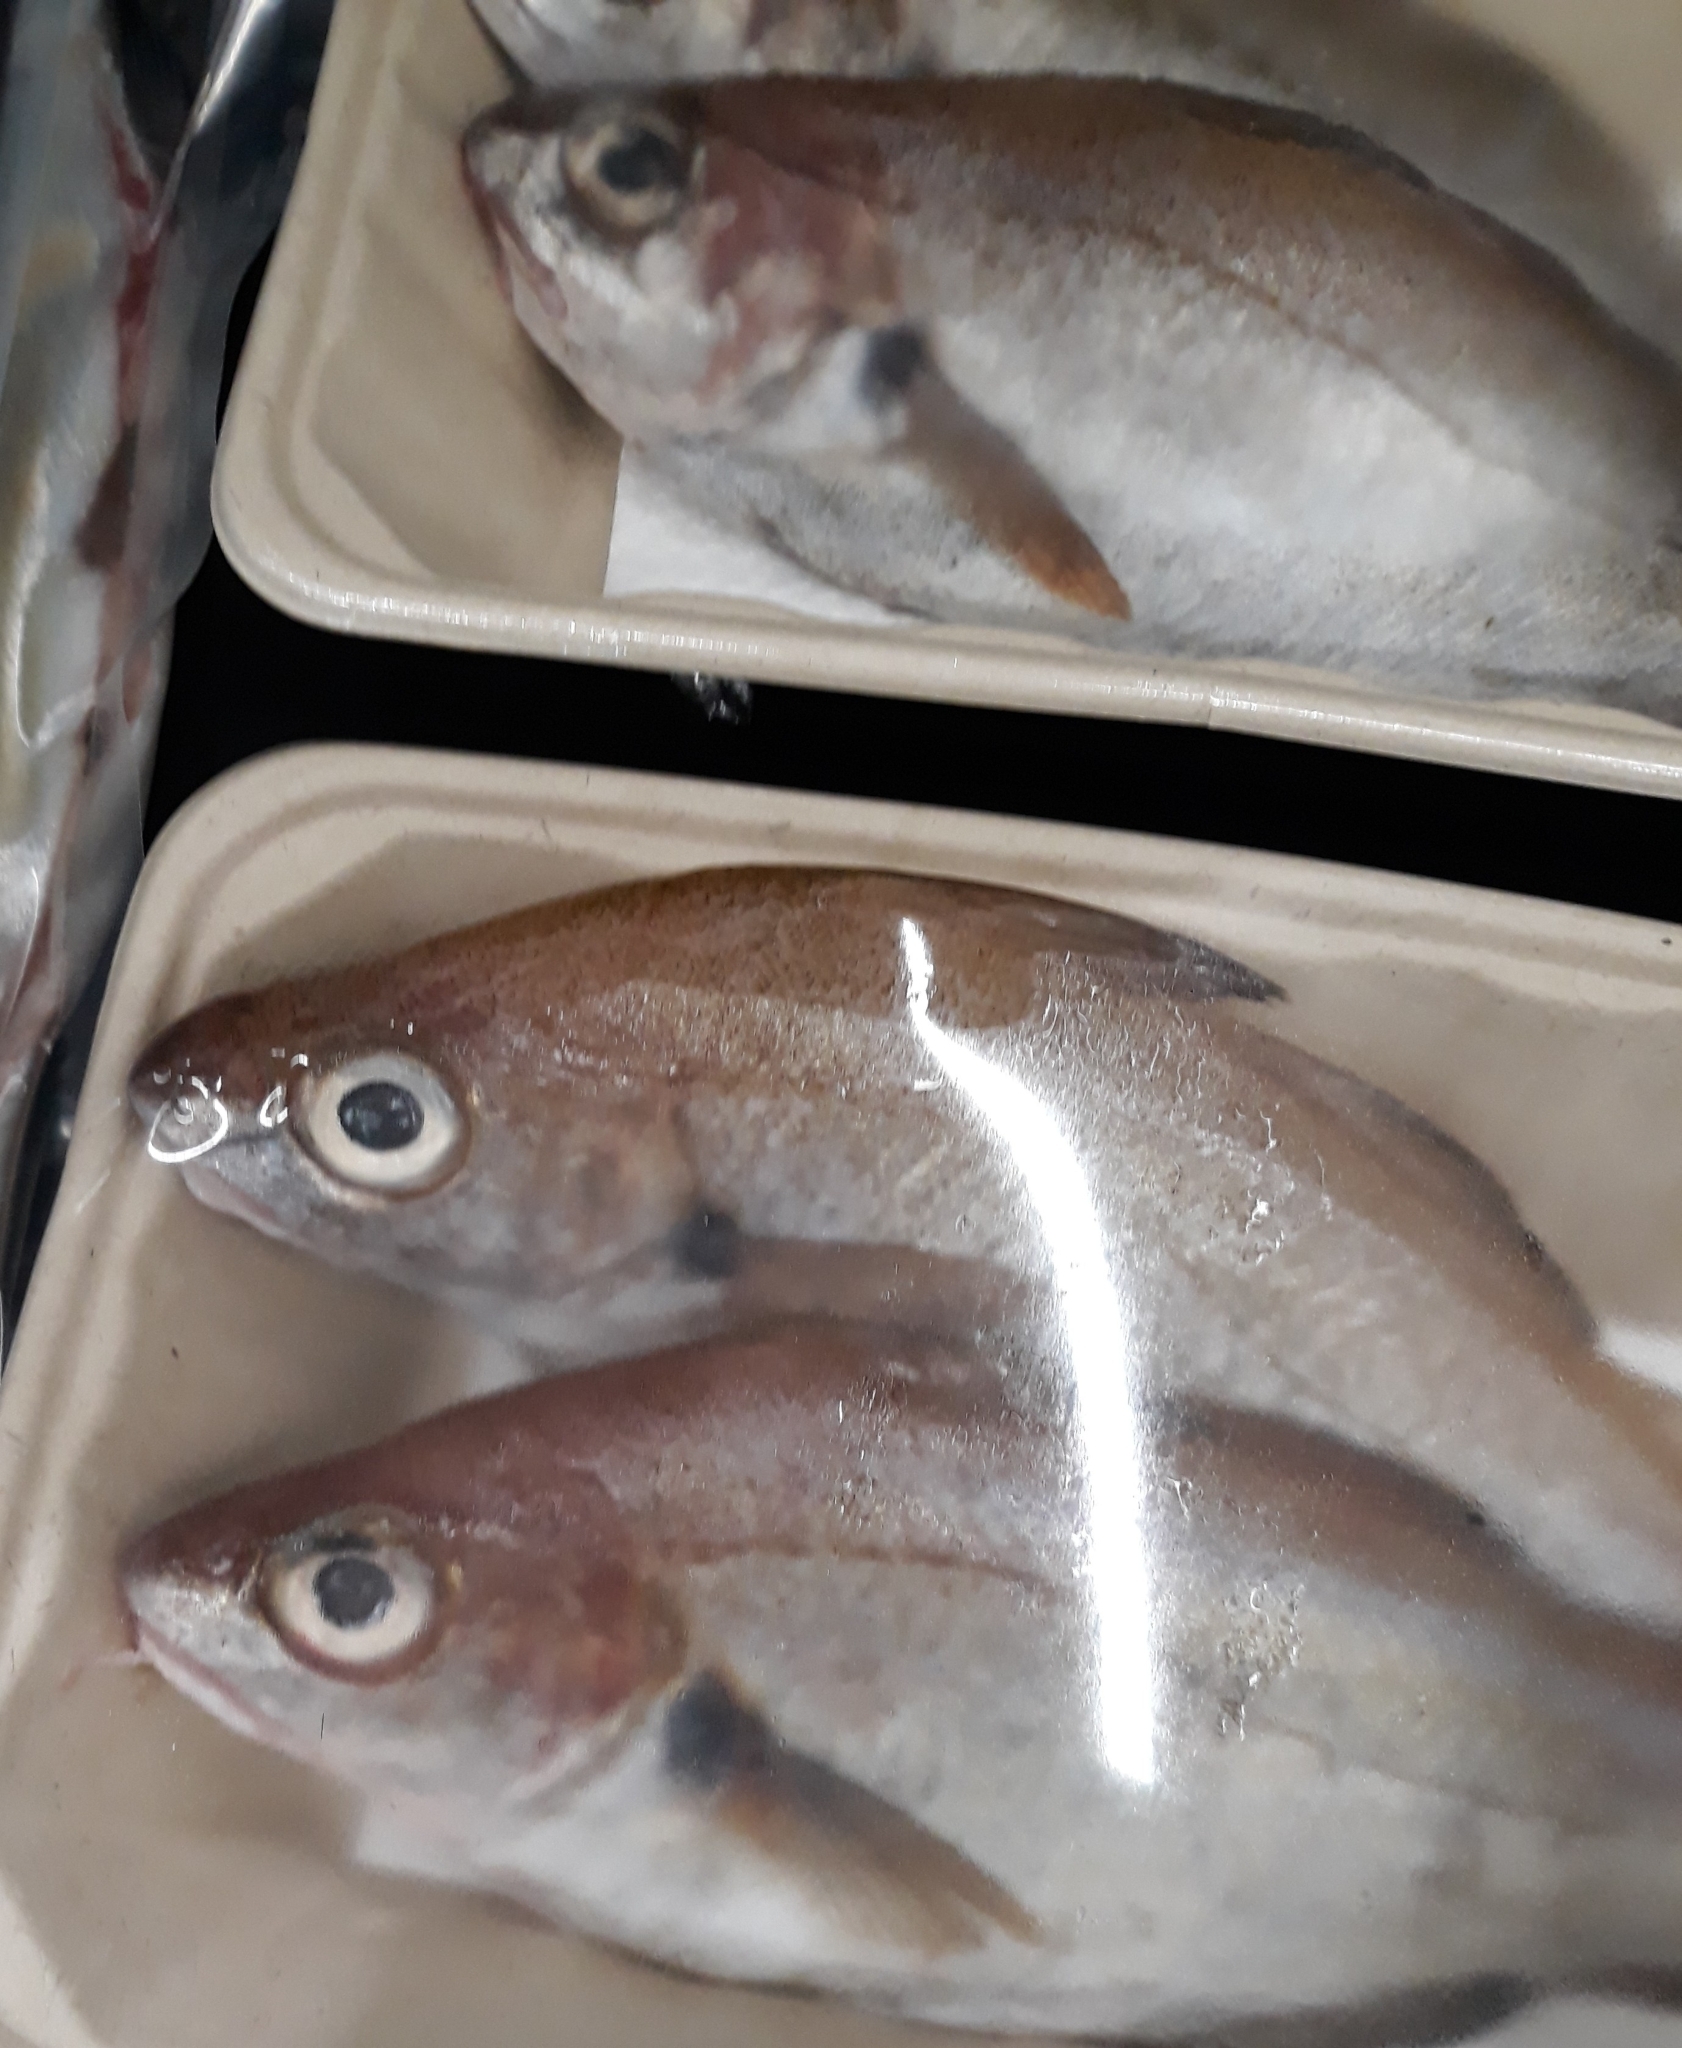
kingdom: Animalia
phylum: Chordata
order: Gadiformes
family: Gadidae
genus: Trisopterus
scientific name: Trisopterus luscus
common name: Bib
